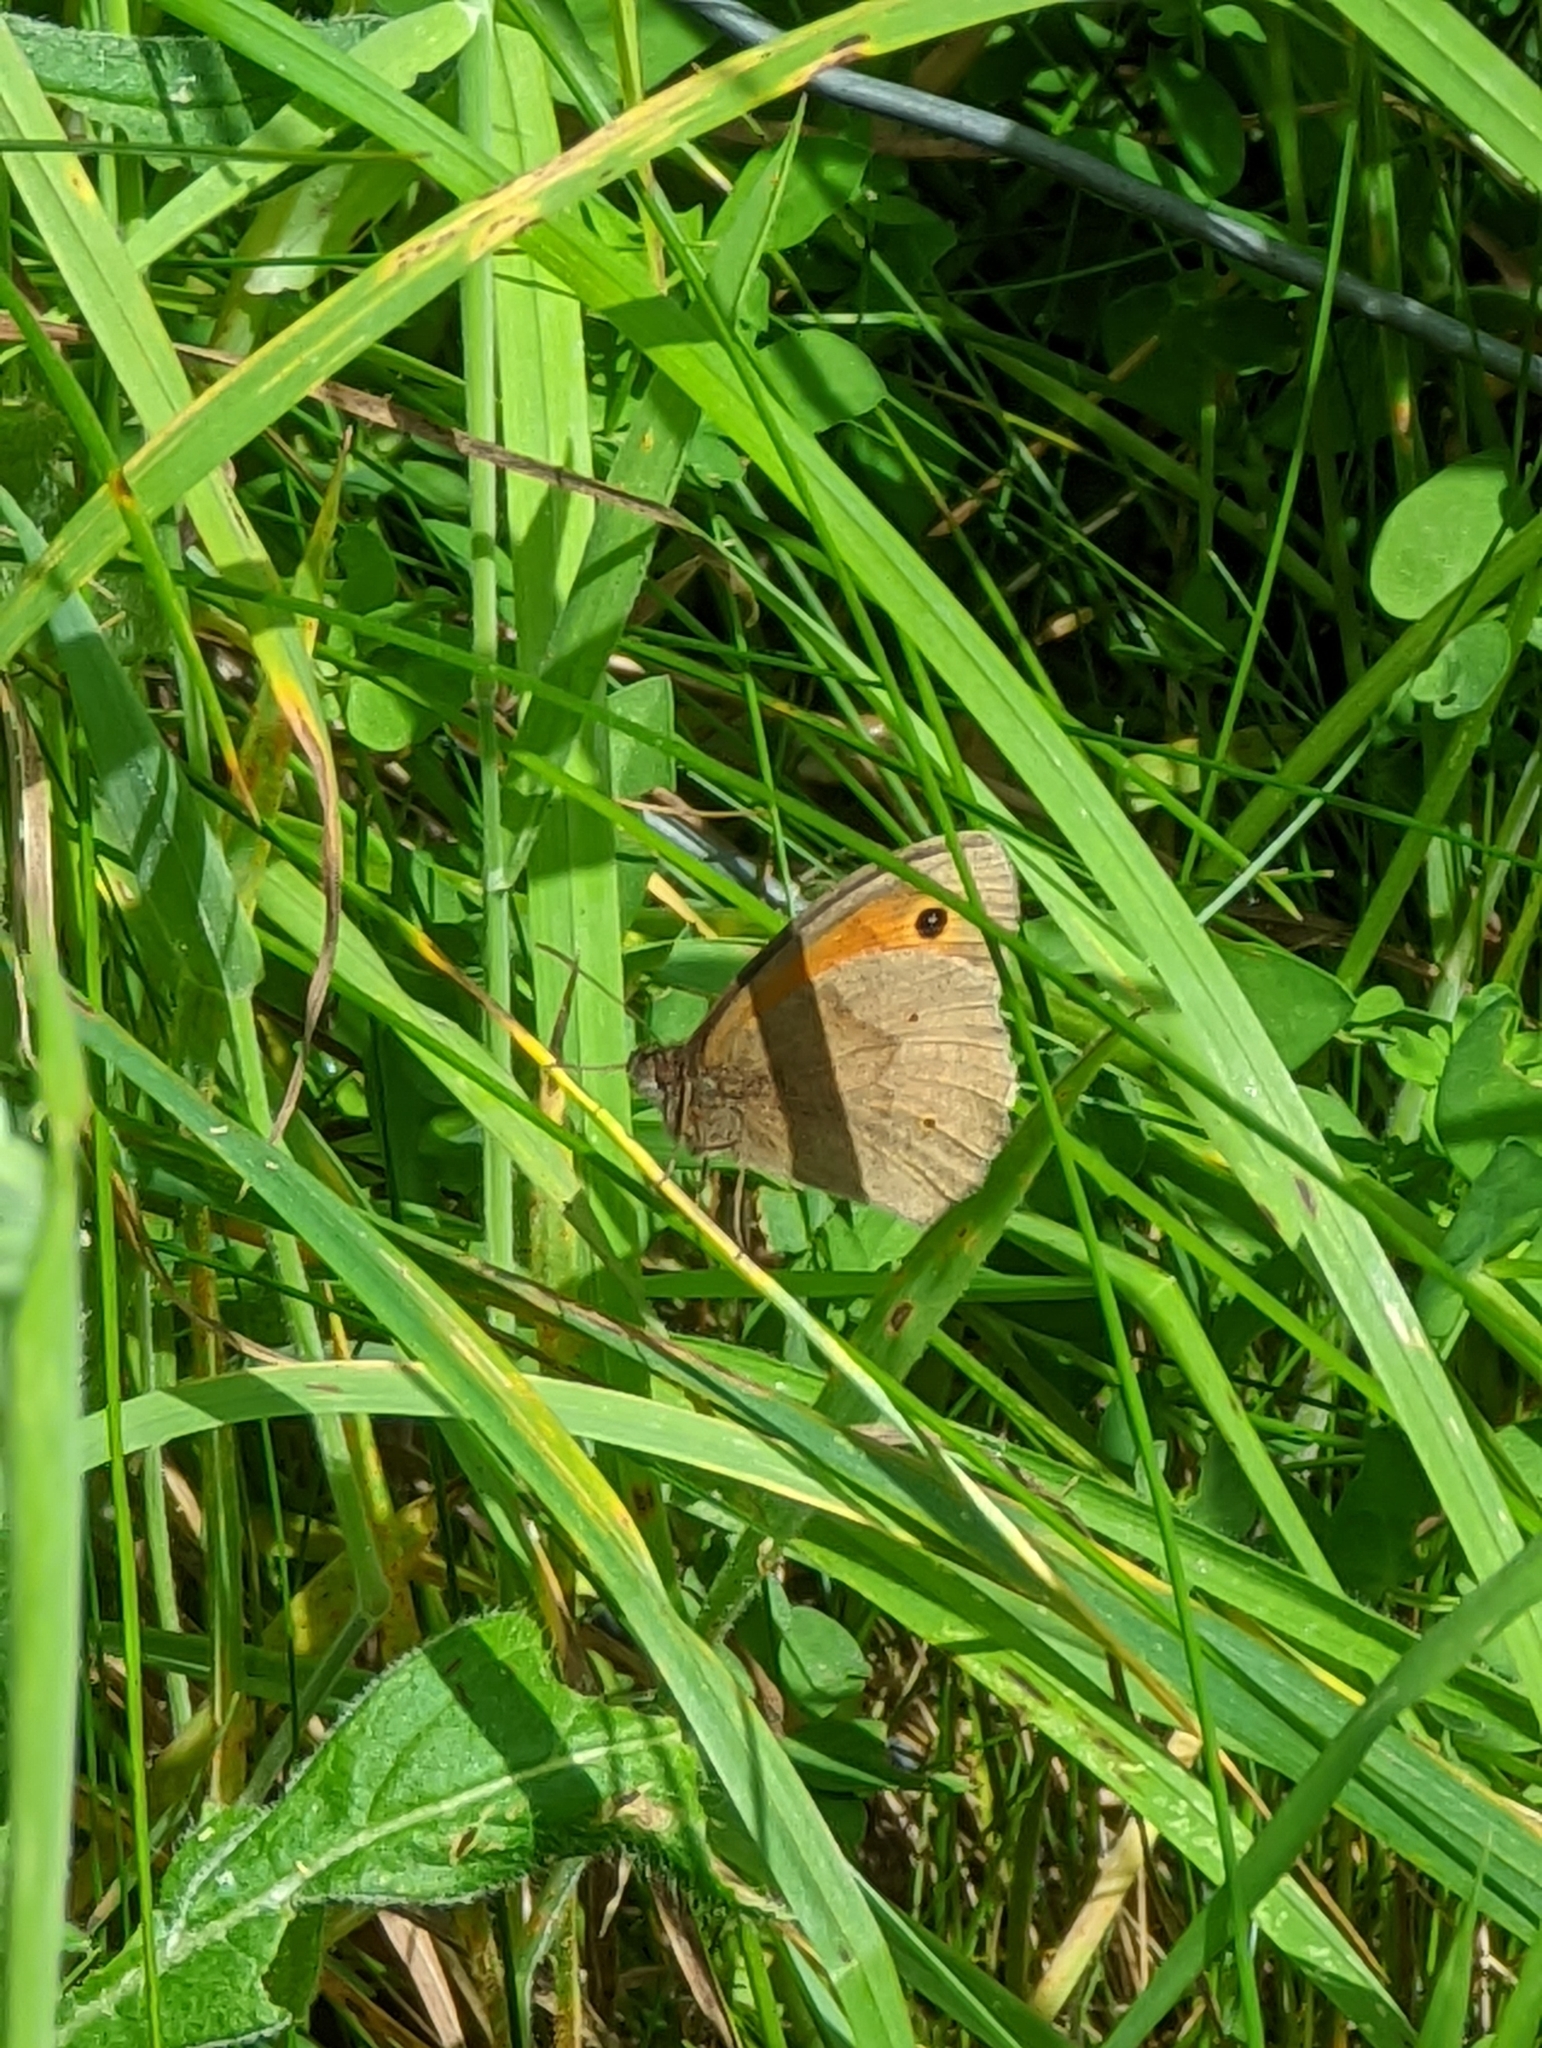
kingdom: Animalia
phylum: Arthropoda
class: Insecta
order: Lepidoptera
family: Nymphalidae
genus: Maniola
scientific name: Maniola jurtina
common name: Meadow brown
